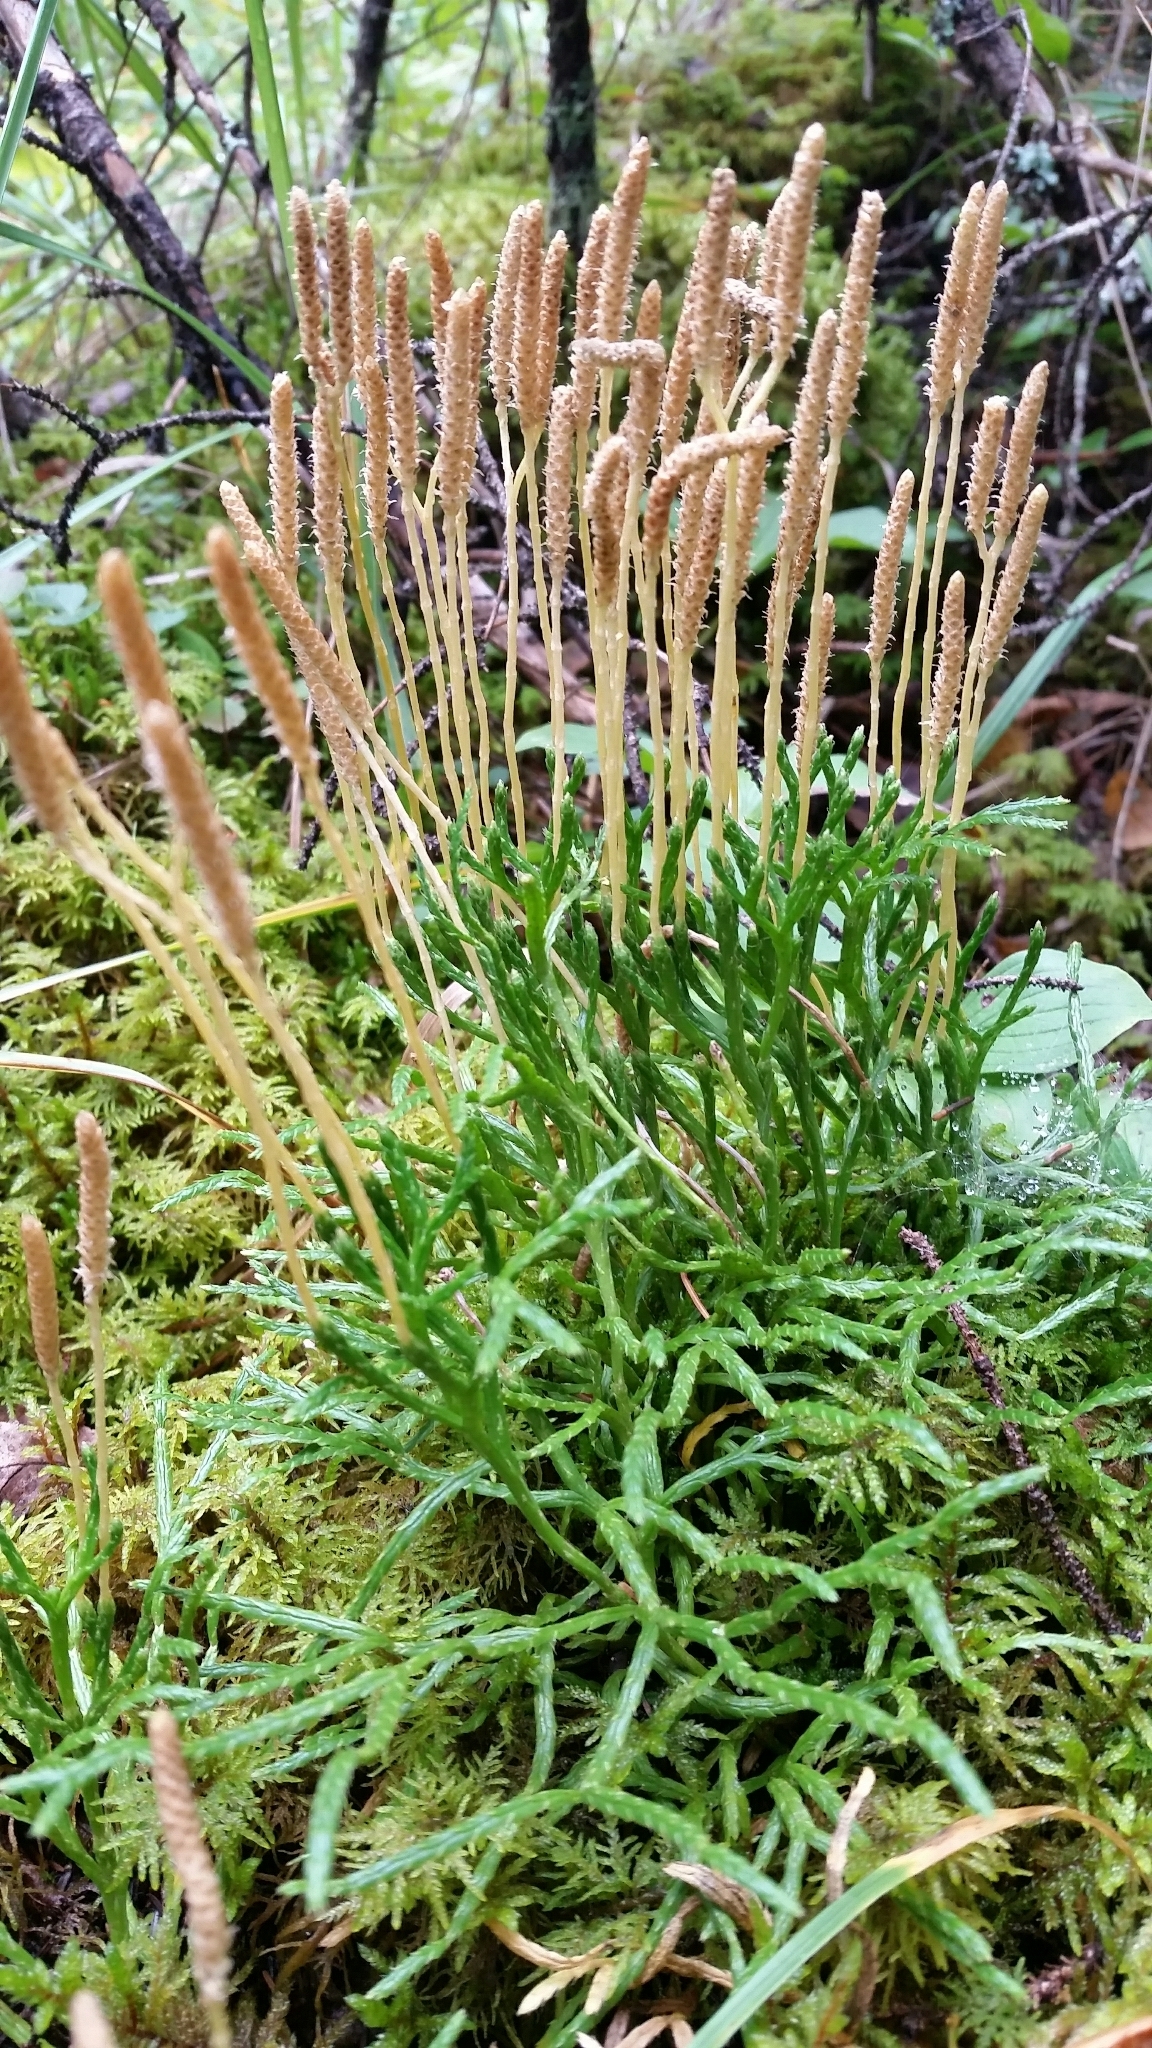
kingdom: Plantae
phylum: Tracheophyta
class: Lycopodiopsida
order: Lycopodiales
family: Lycopodiaceae
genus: Diphasiastrum
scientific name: Diphasiastrum complanatum
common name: Northern running-pine
